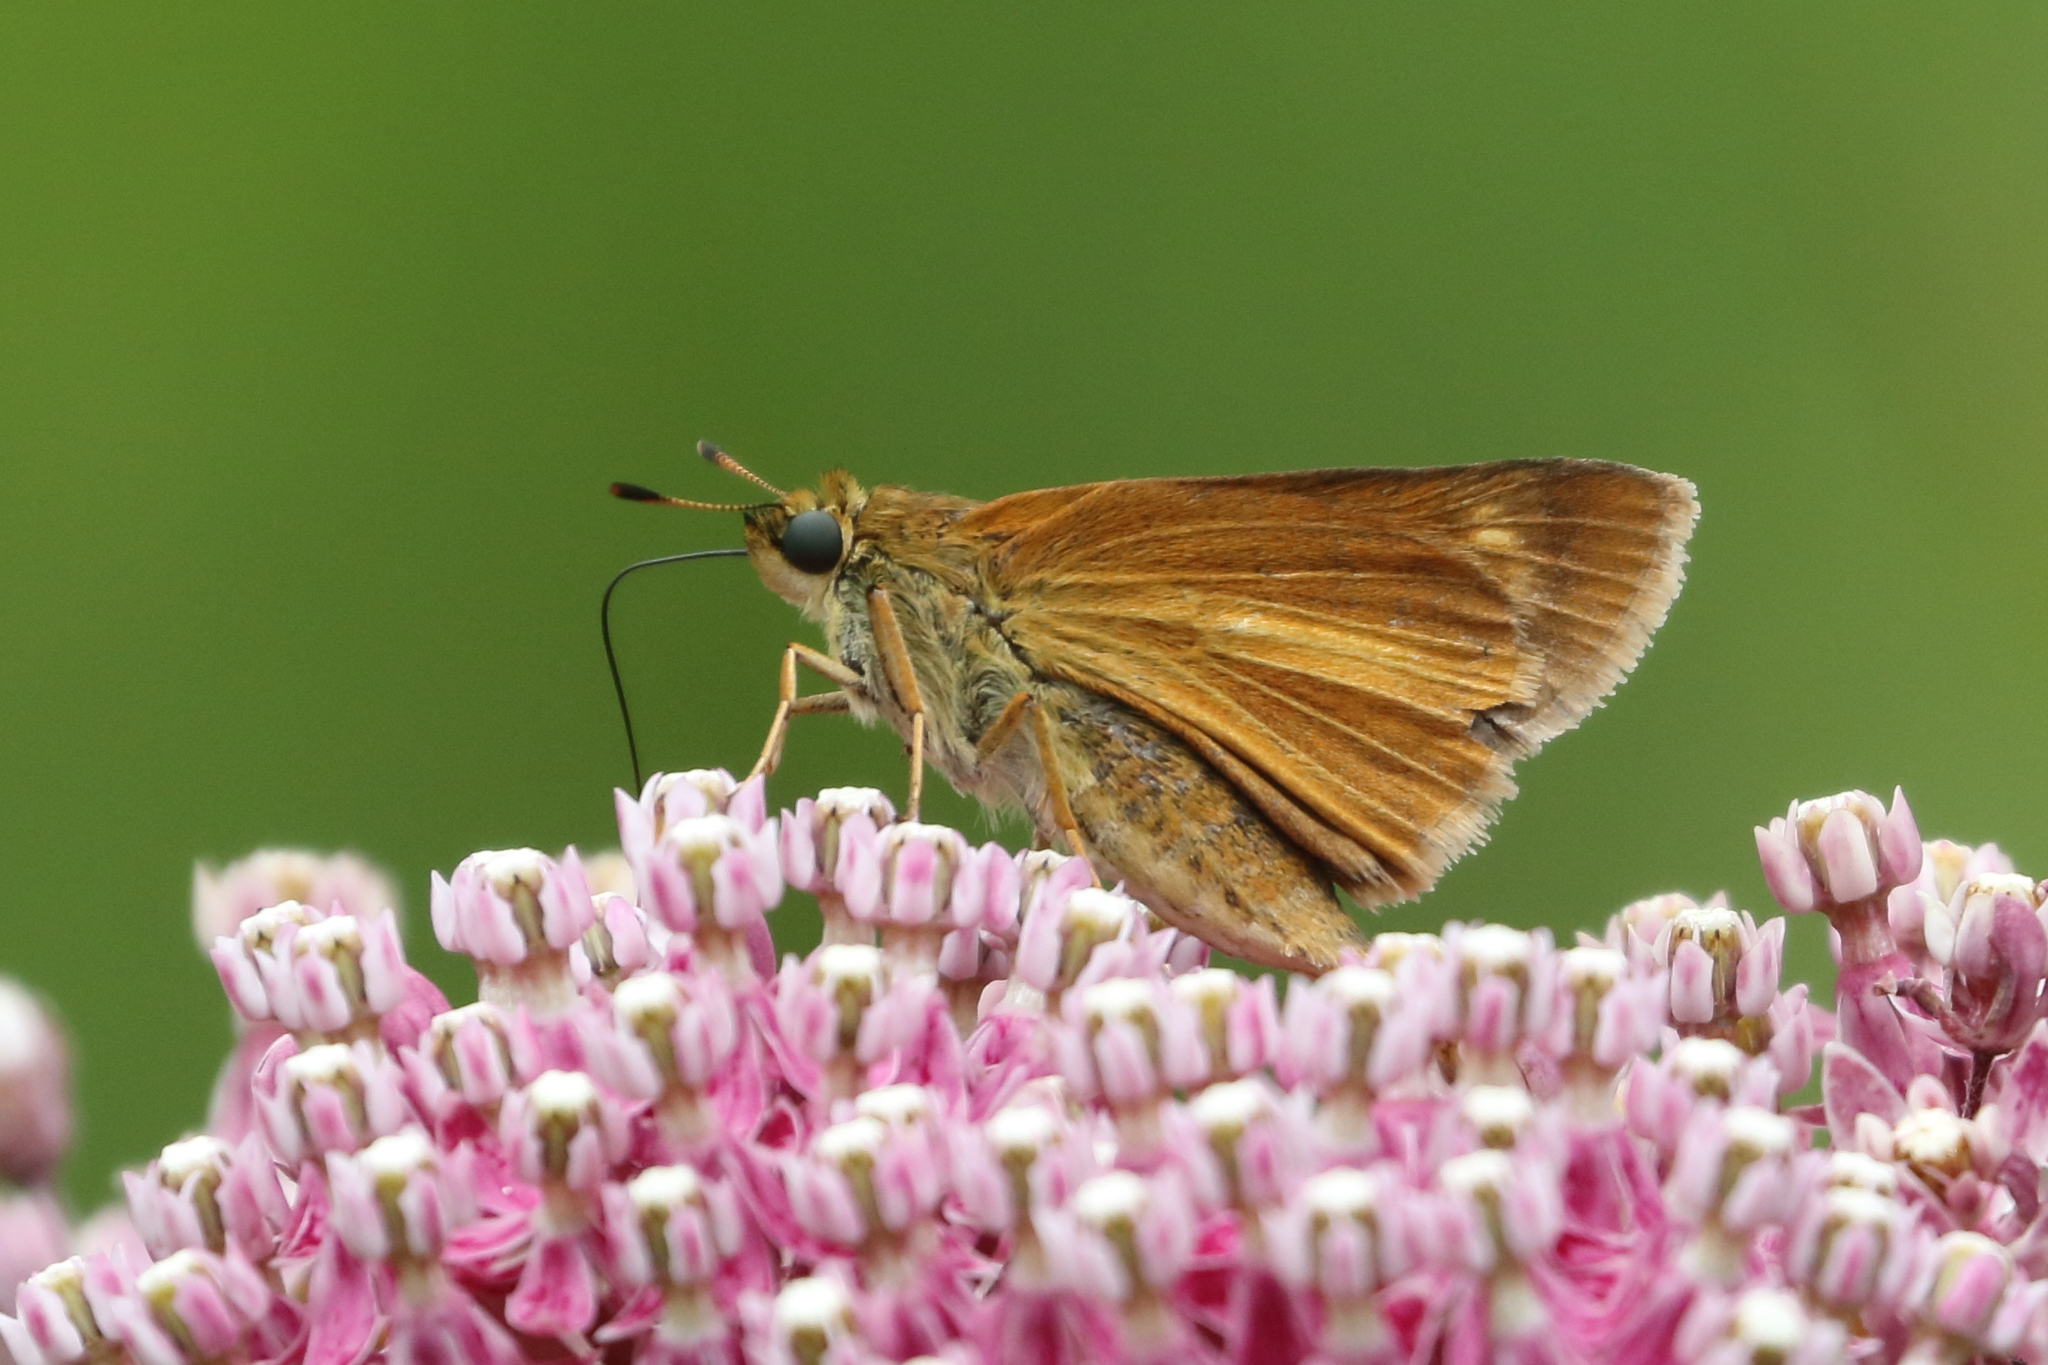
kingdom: Animalia
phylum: Arthropoda
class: Insecta
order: Lepidoptera
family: Hesperiidae
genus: Euphyes
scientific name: Euphyes dion
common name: Dion skipper
